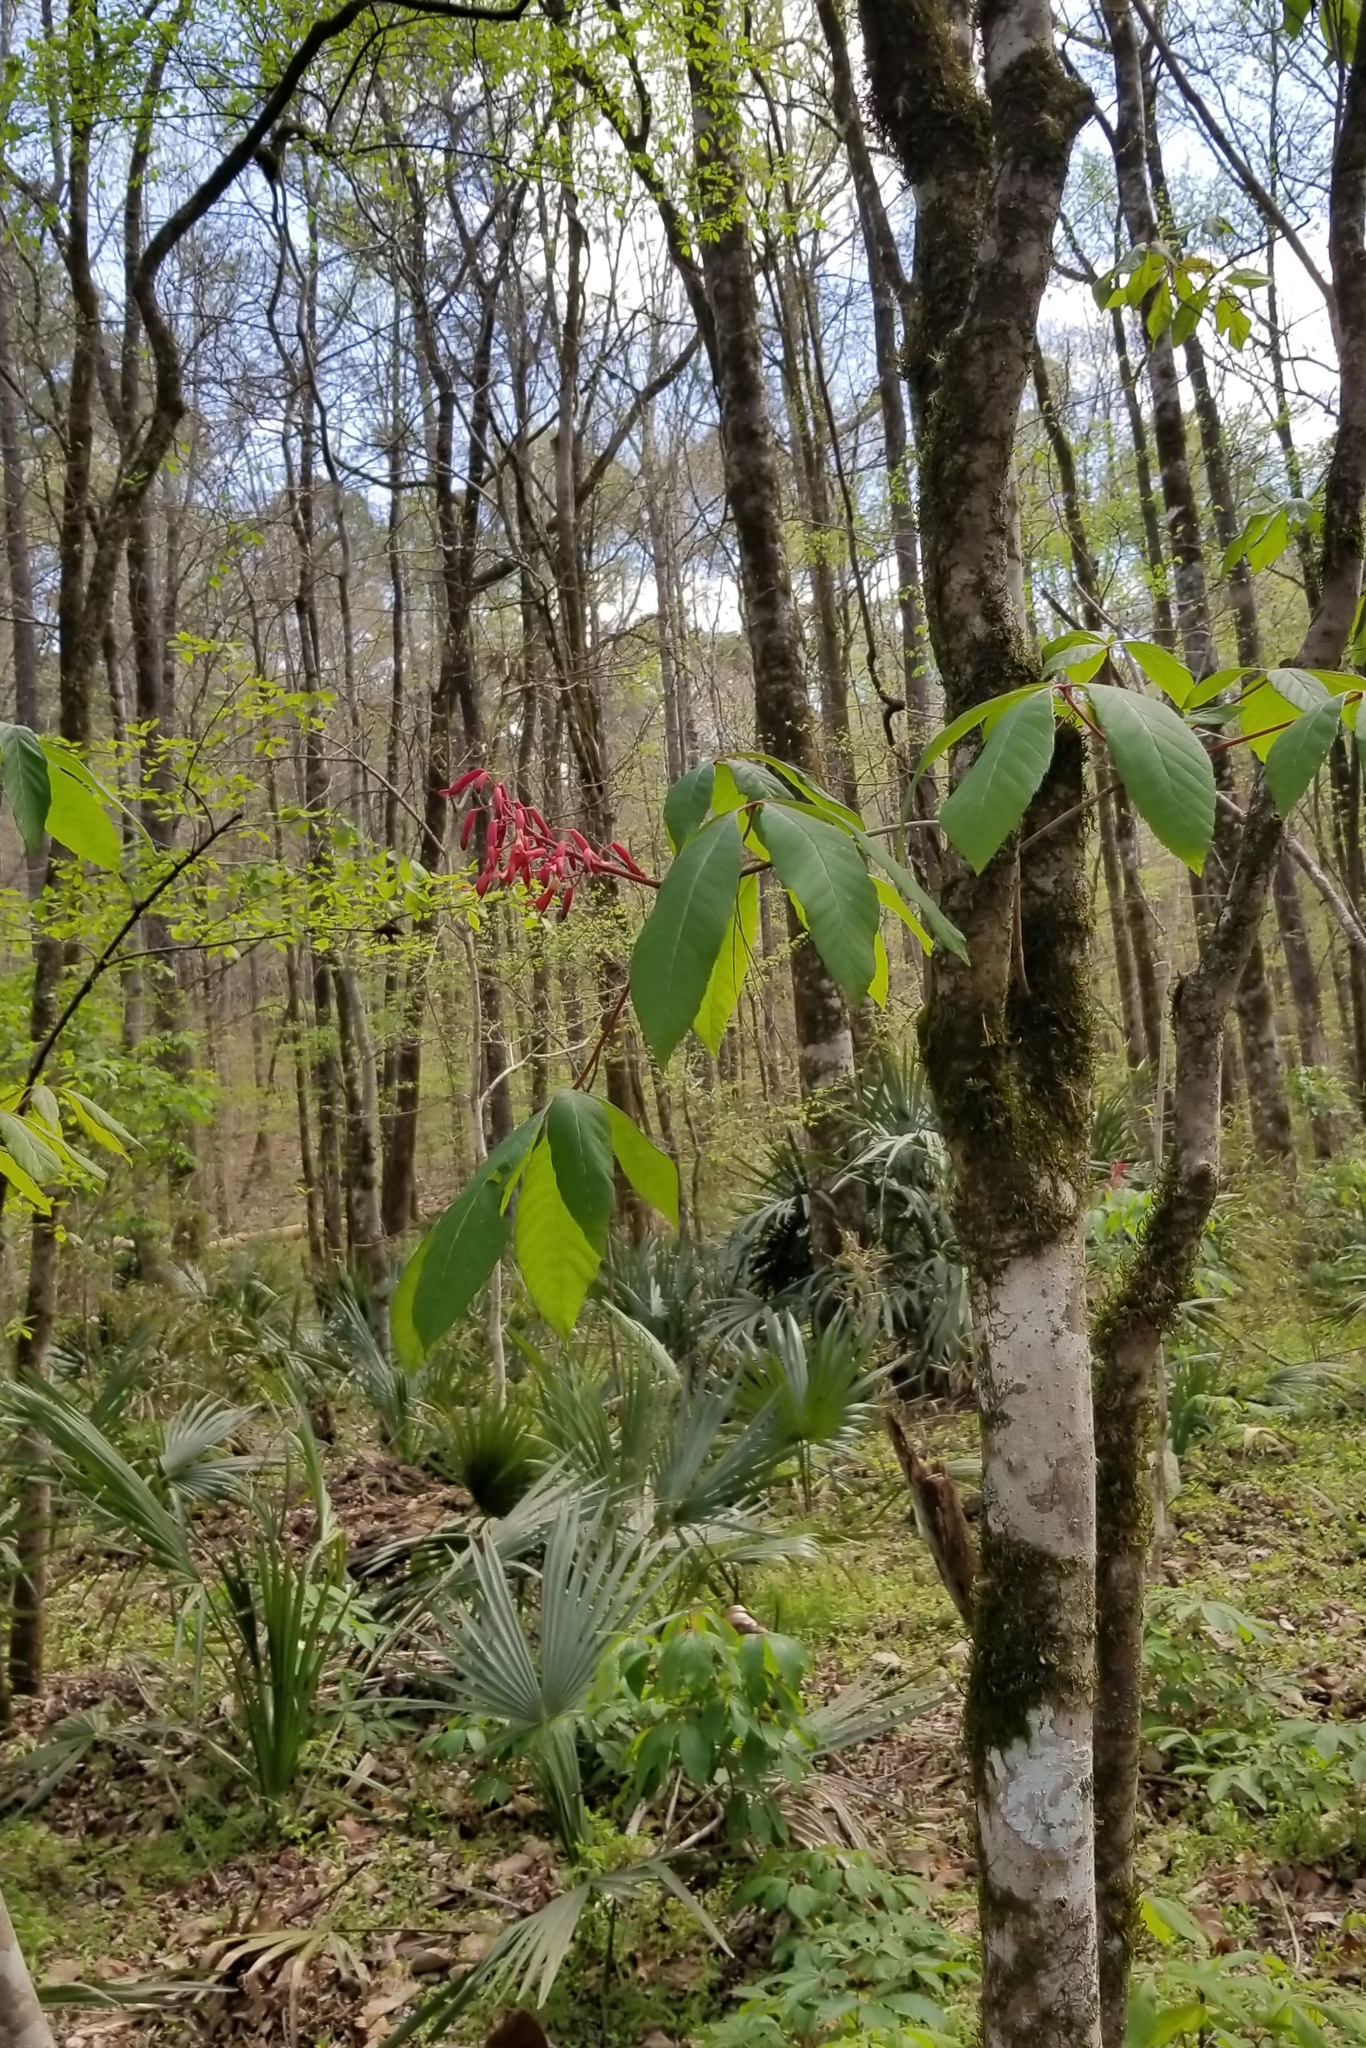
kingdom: Plantae
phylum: Tracheophyta
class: Magnoliopsida
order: Sapindales
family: Sapindaceae
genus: Aesculus
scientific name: Aesculus pavia
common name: Red buckeye
